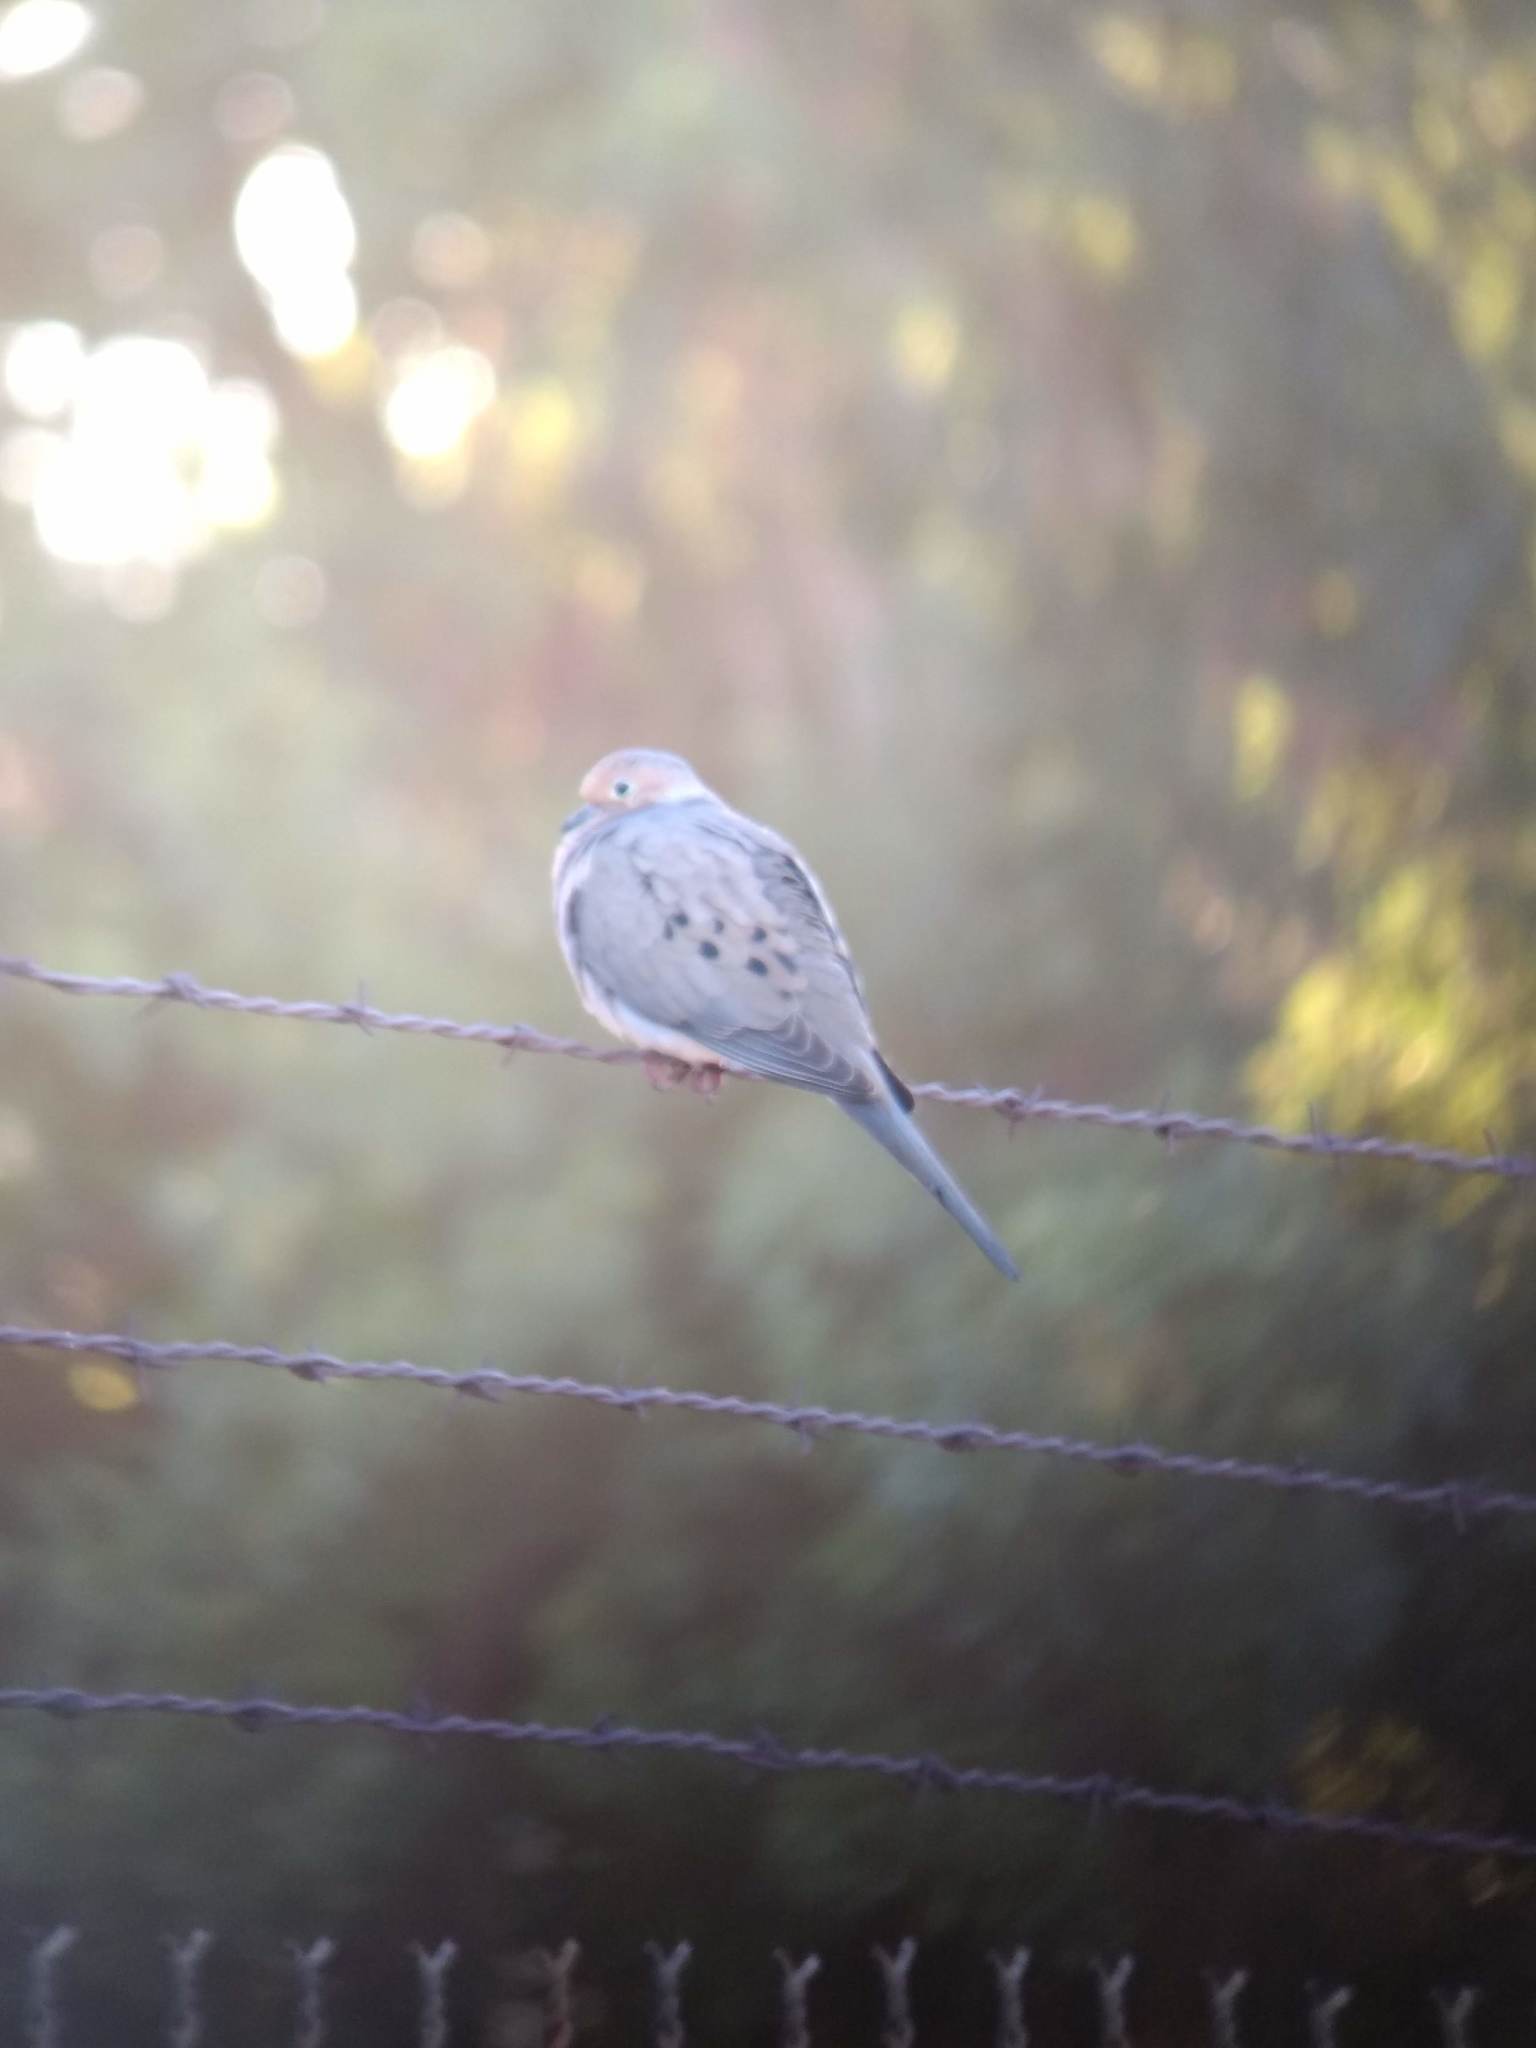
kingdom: Animalia
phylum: Chordata
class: Aves
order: Columbiformes
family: Columbidae
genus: Zenaida
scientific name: Zenaida macroura
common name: Mourning dove
